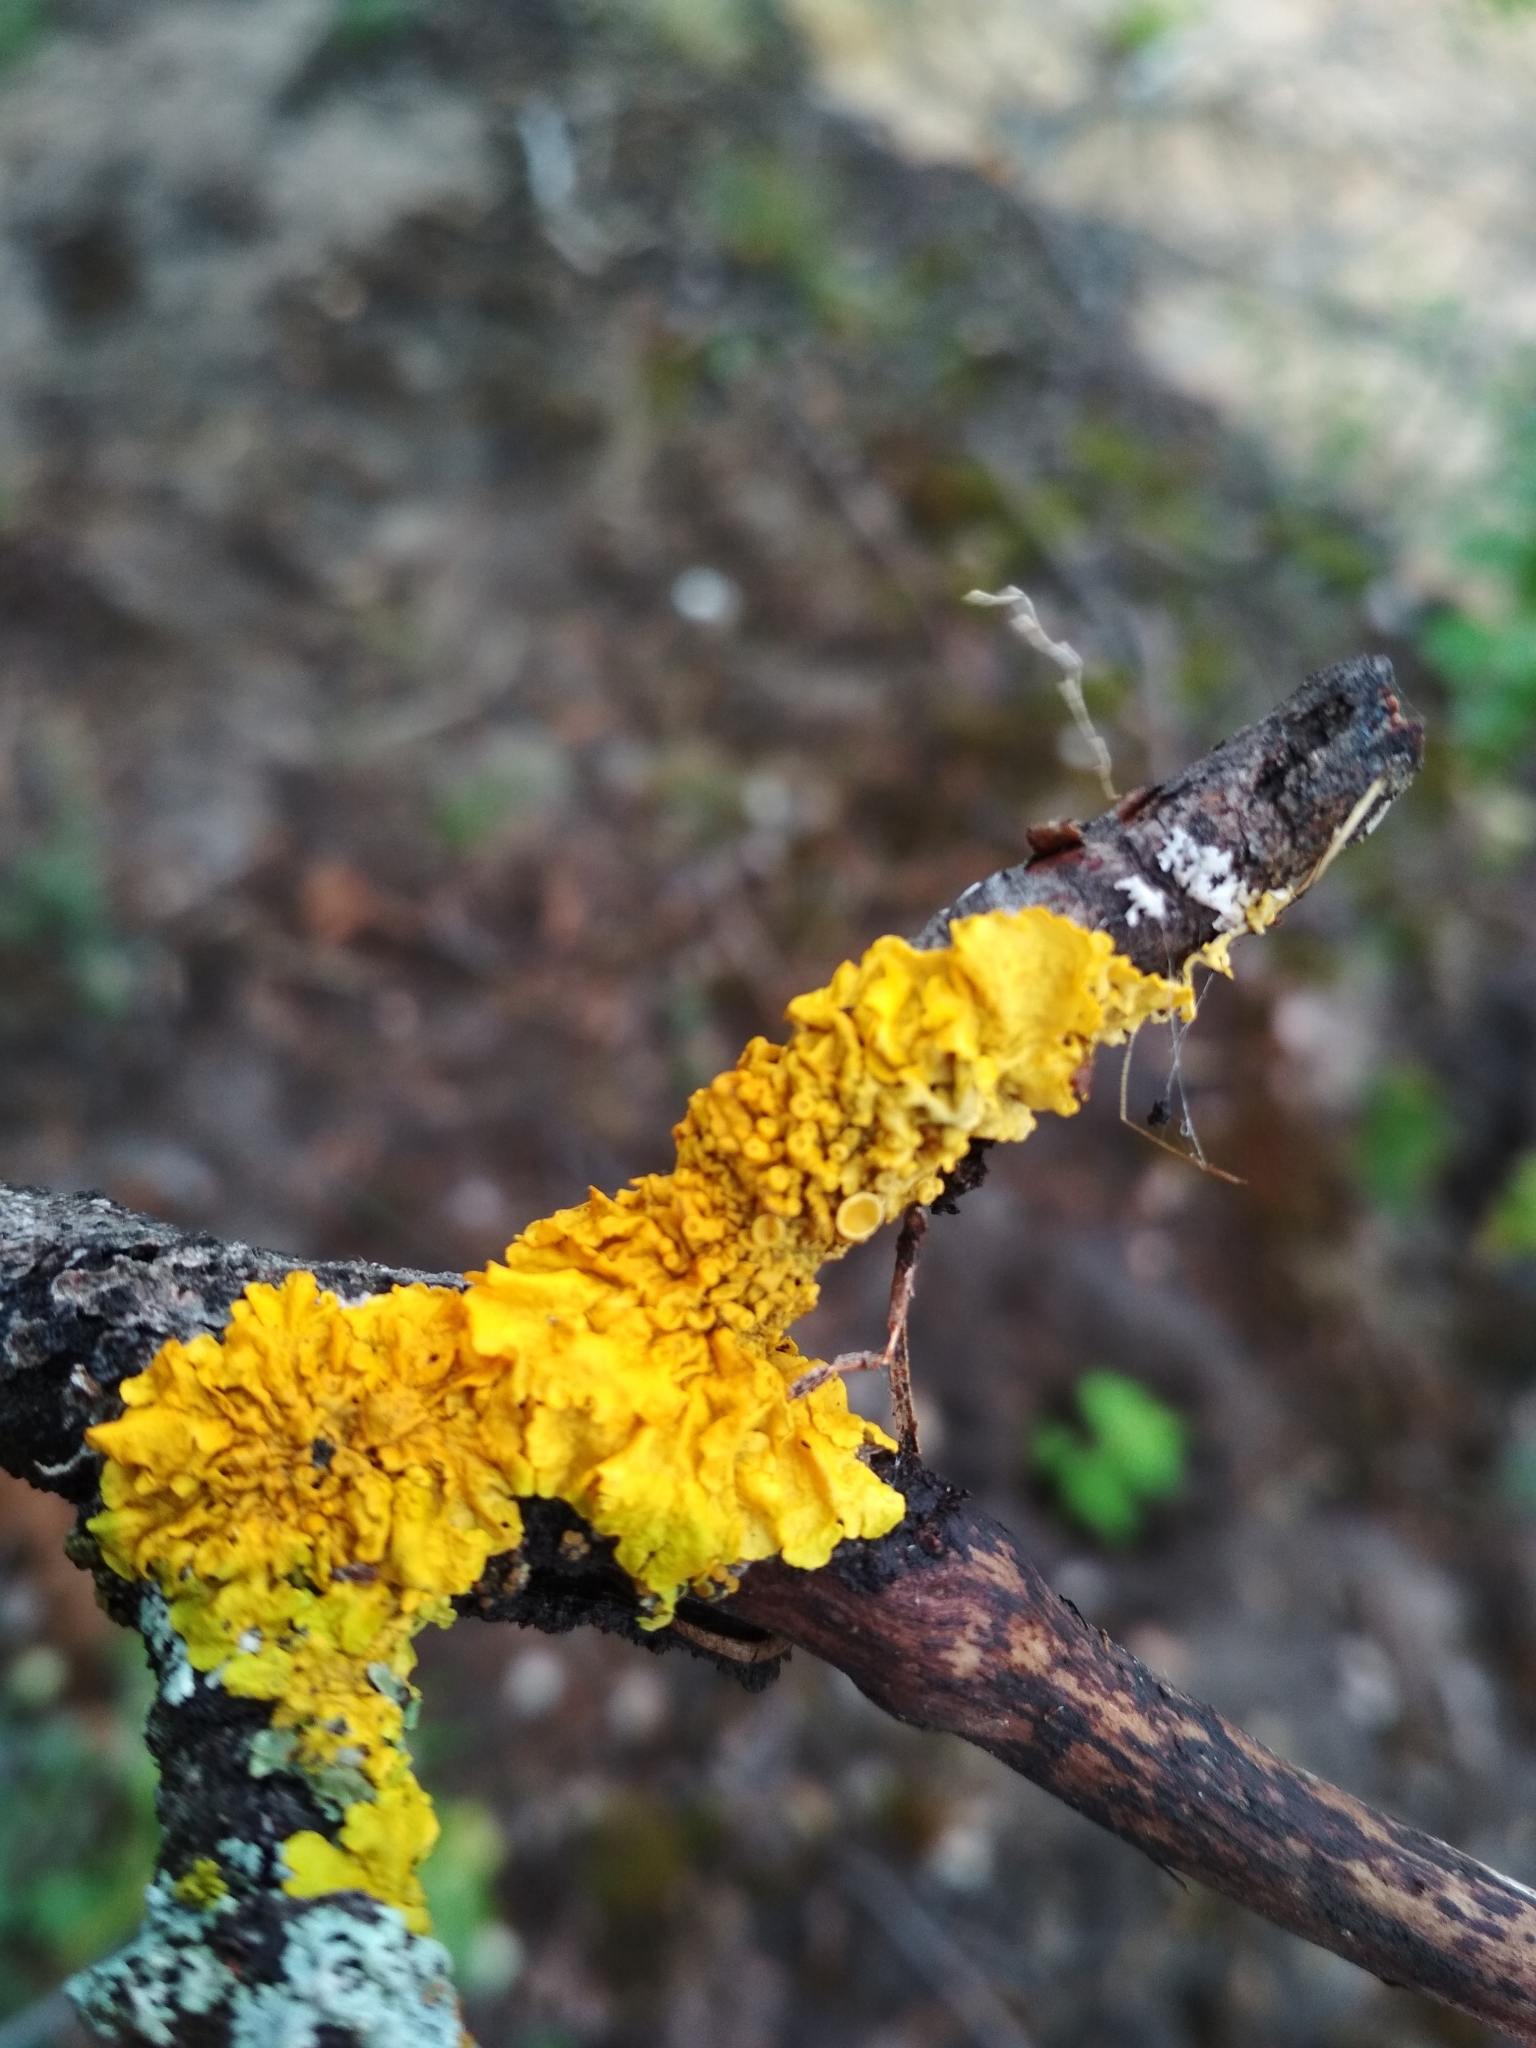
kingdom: Fungi
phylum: Ascomycota
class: Lecanoromycetes
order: Teloschistales
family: Teloschistaceae
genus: Xanthoria
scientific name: Xanthoria parietina
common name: Common orange lichen
